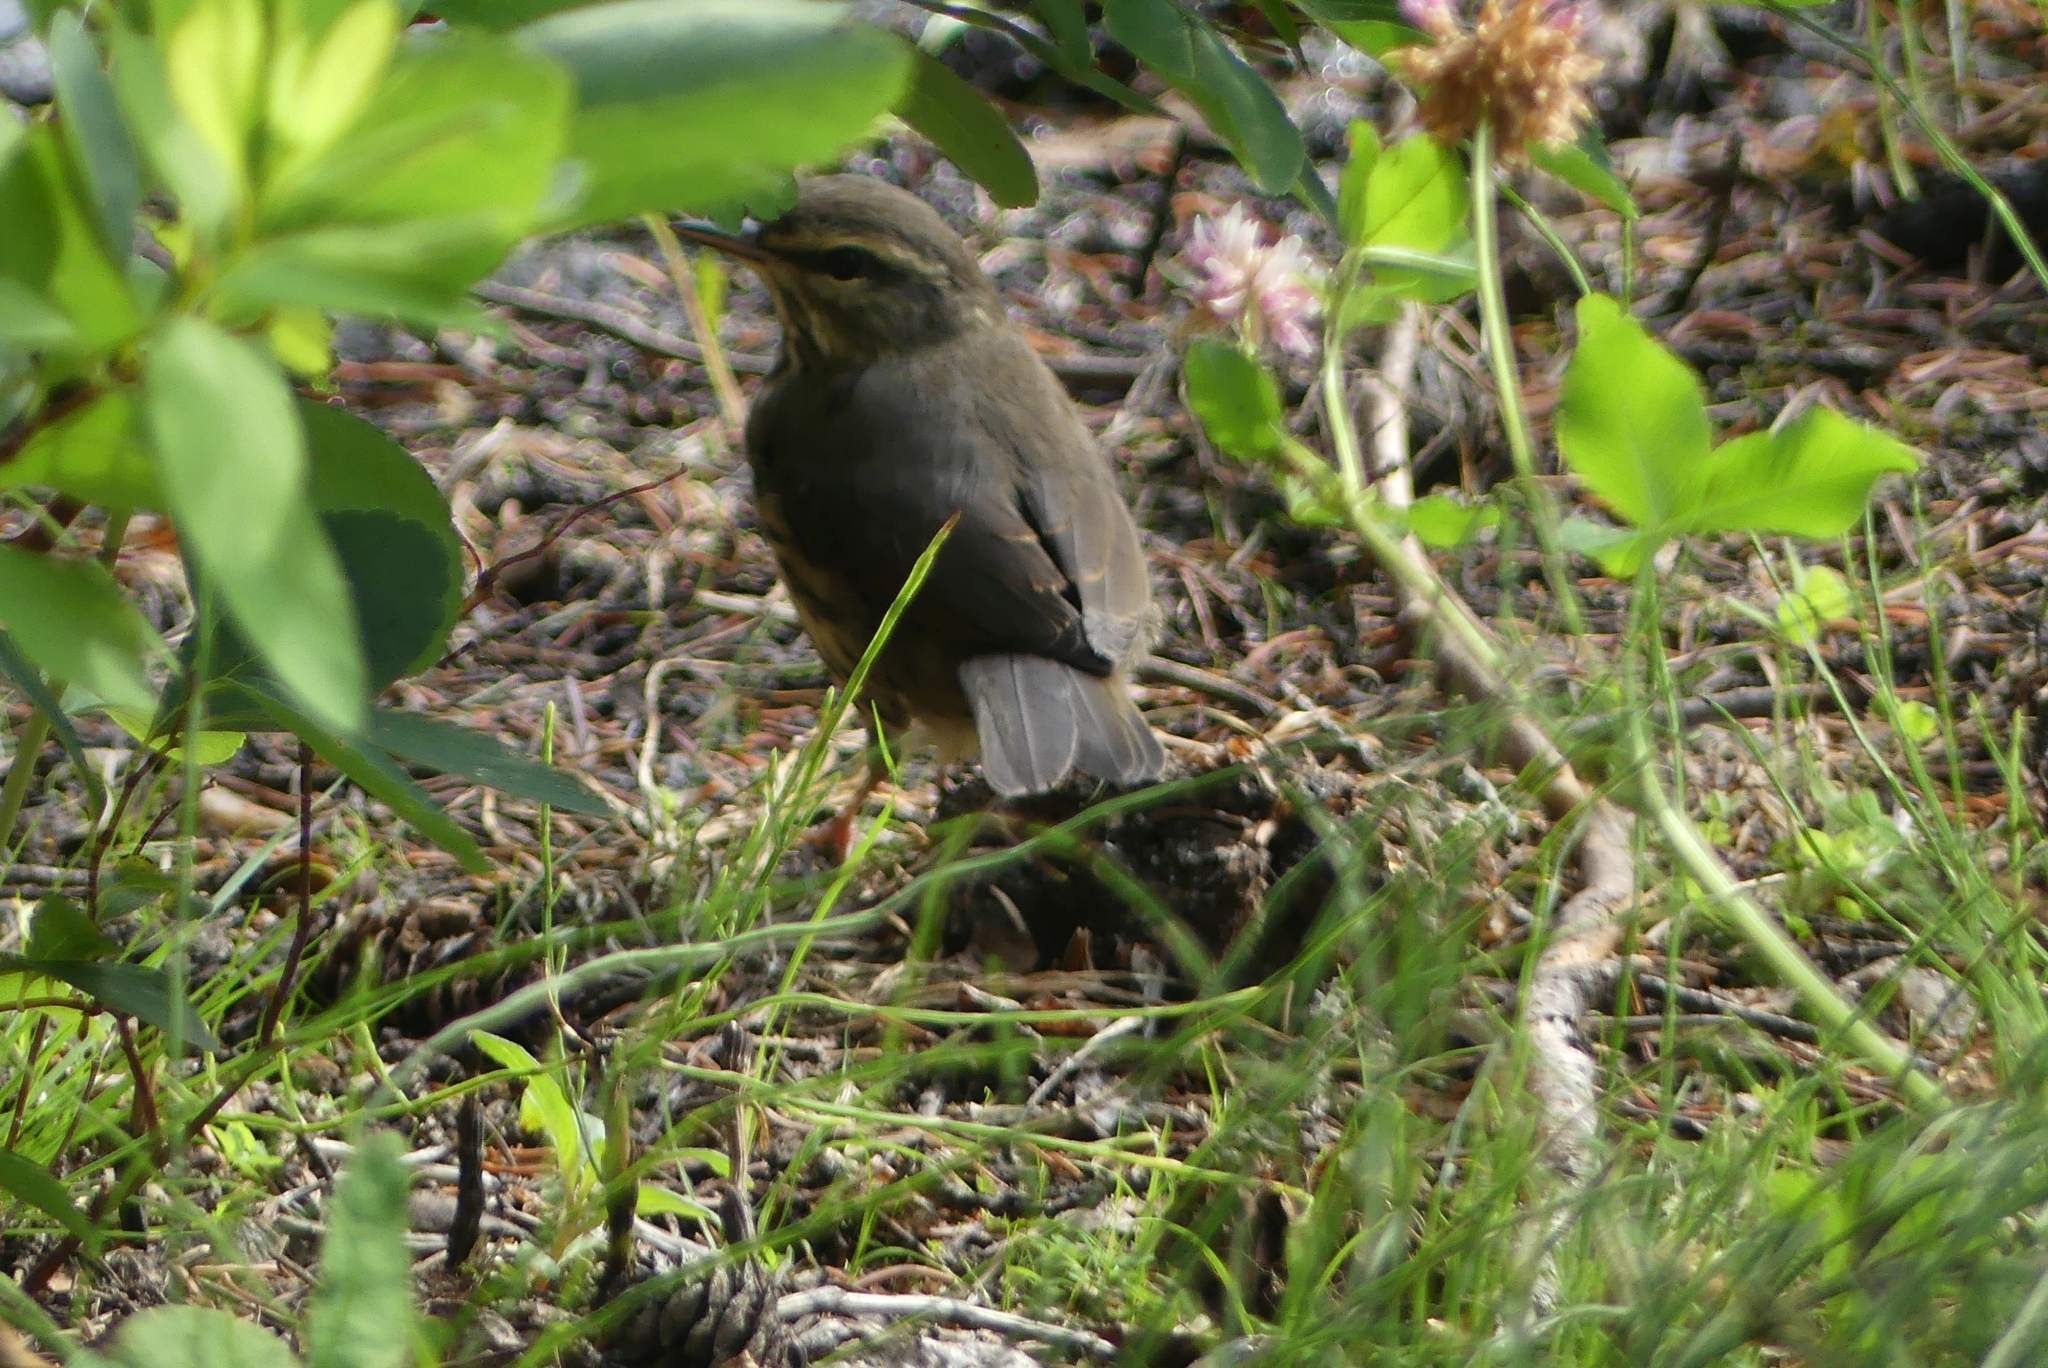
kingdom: Animalia
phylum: Chordata
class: Aves
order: Passeriformes
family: Parulidae
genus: Parkesia
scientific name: Parkesia noveboracensis
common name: Northern waterthrush
